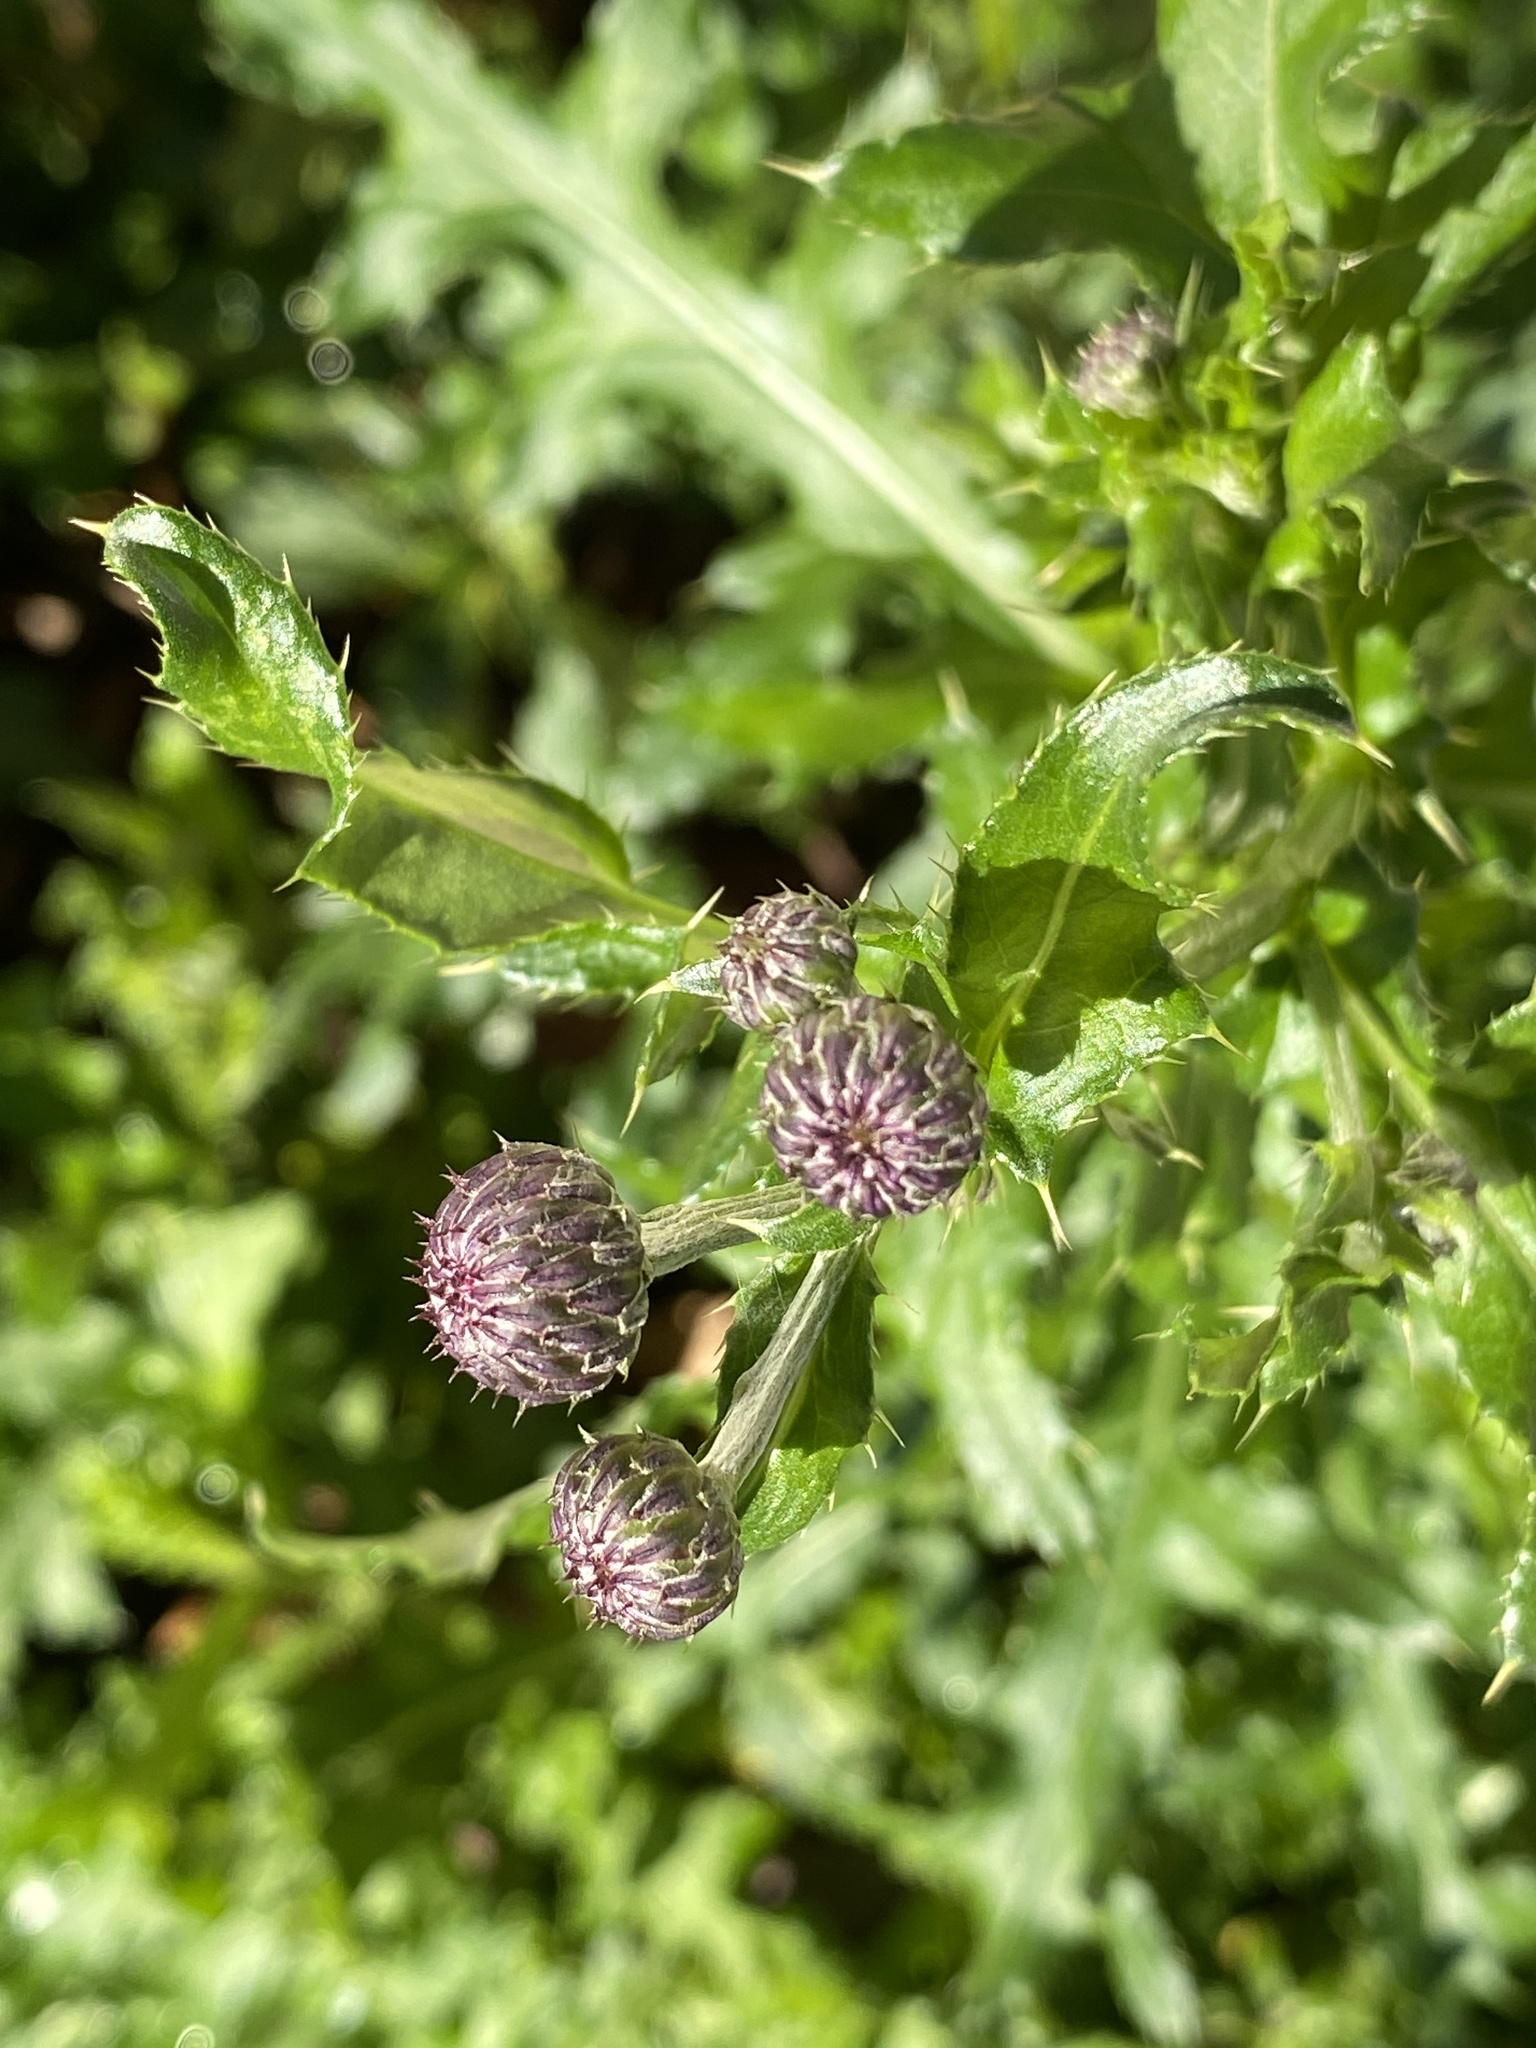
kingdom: Plantae
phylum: Tracheophyta
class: Magnoliopsida
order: Asterales
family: Asteraceae
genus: Cirsium
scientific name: Cirsium arvense
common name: Creeping thistle
